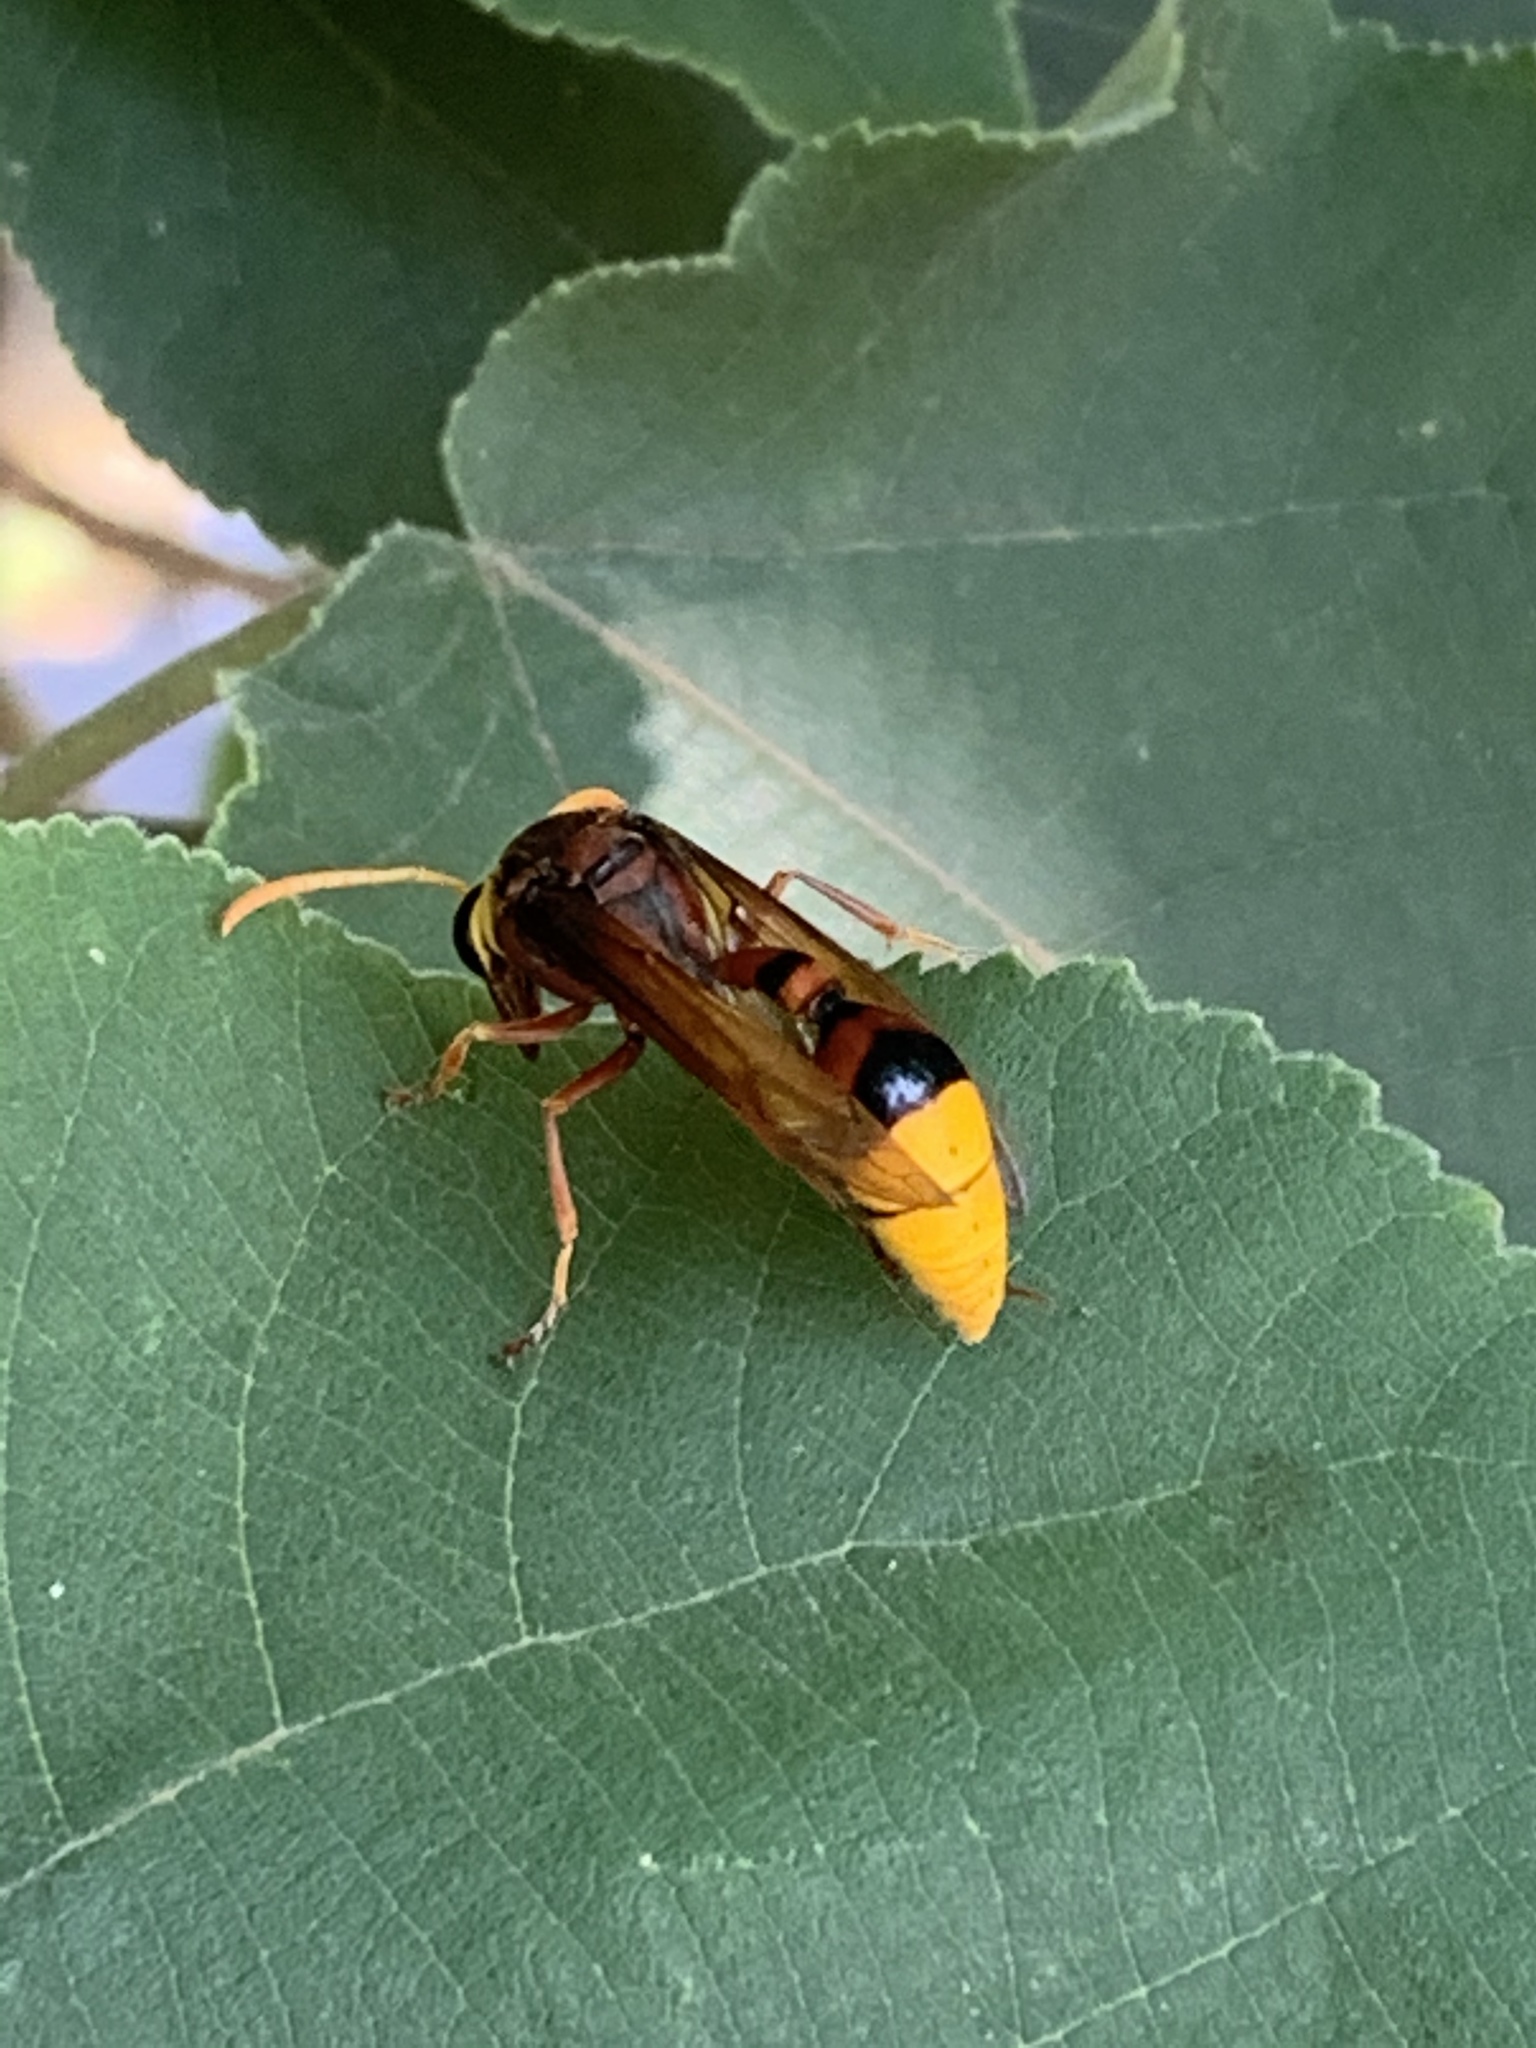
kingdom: Animalia
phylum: Arthropoda
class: Insecta
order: Hymenoptera
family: Eumenidae
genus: Delta
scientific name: Delta pyriforme
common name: Wasp
